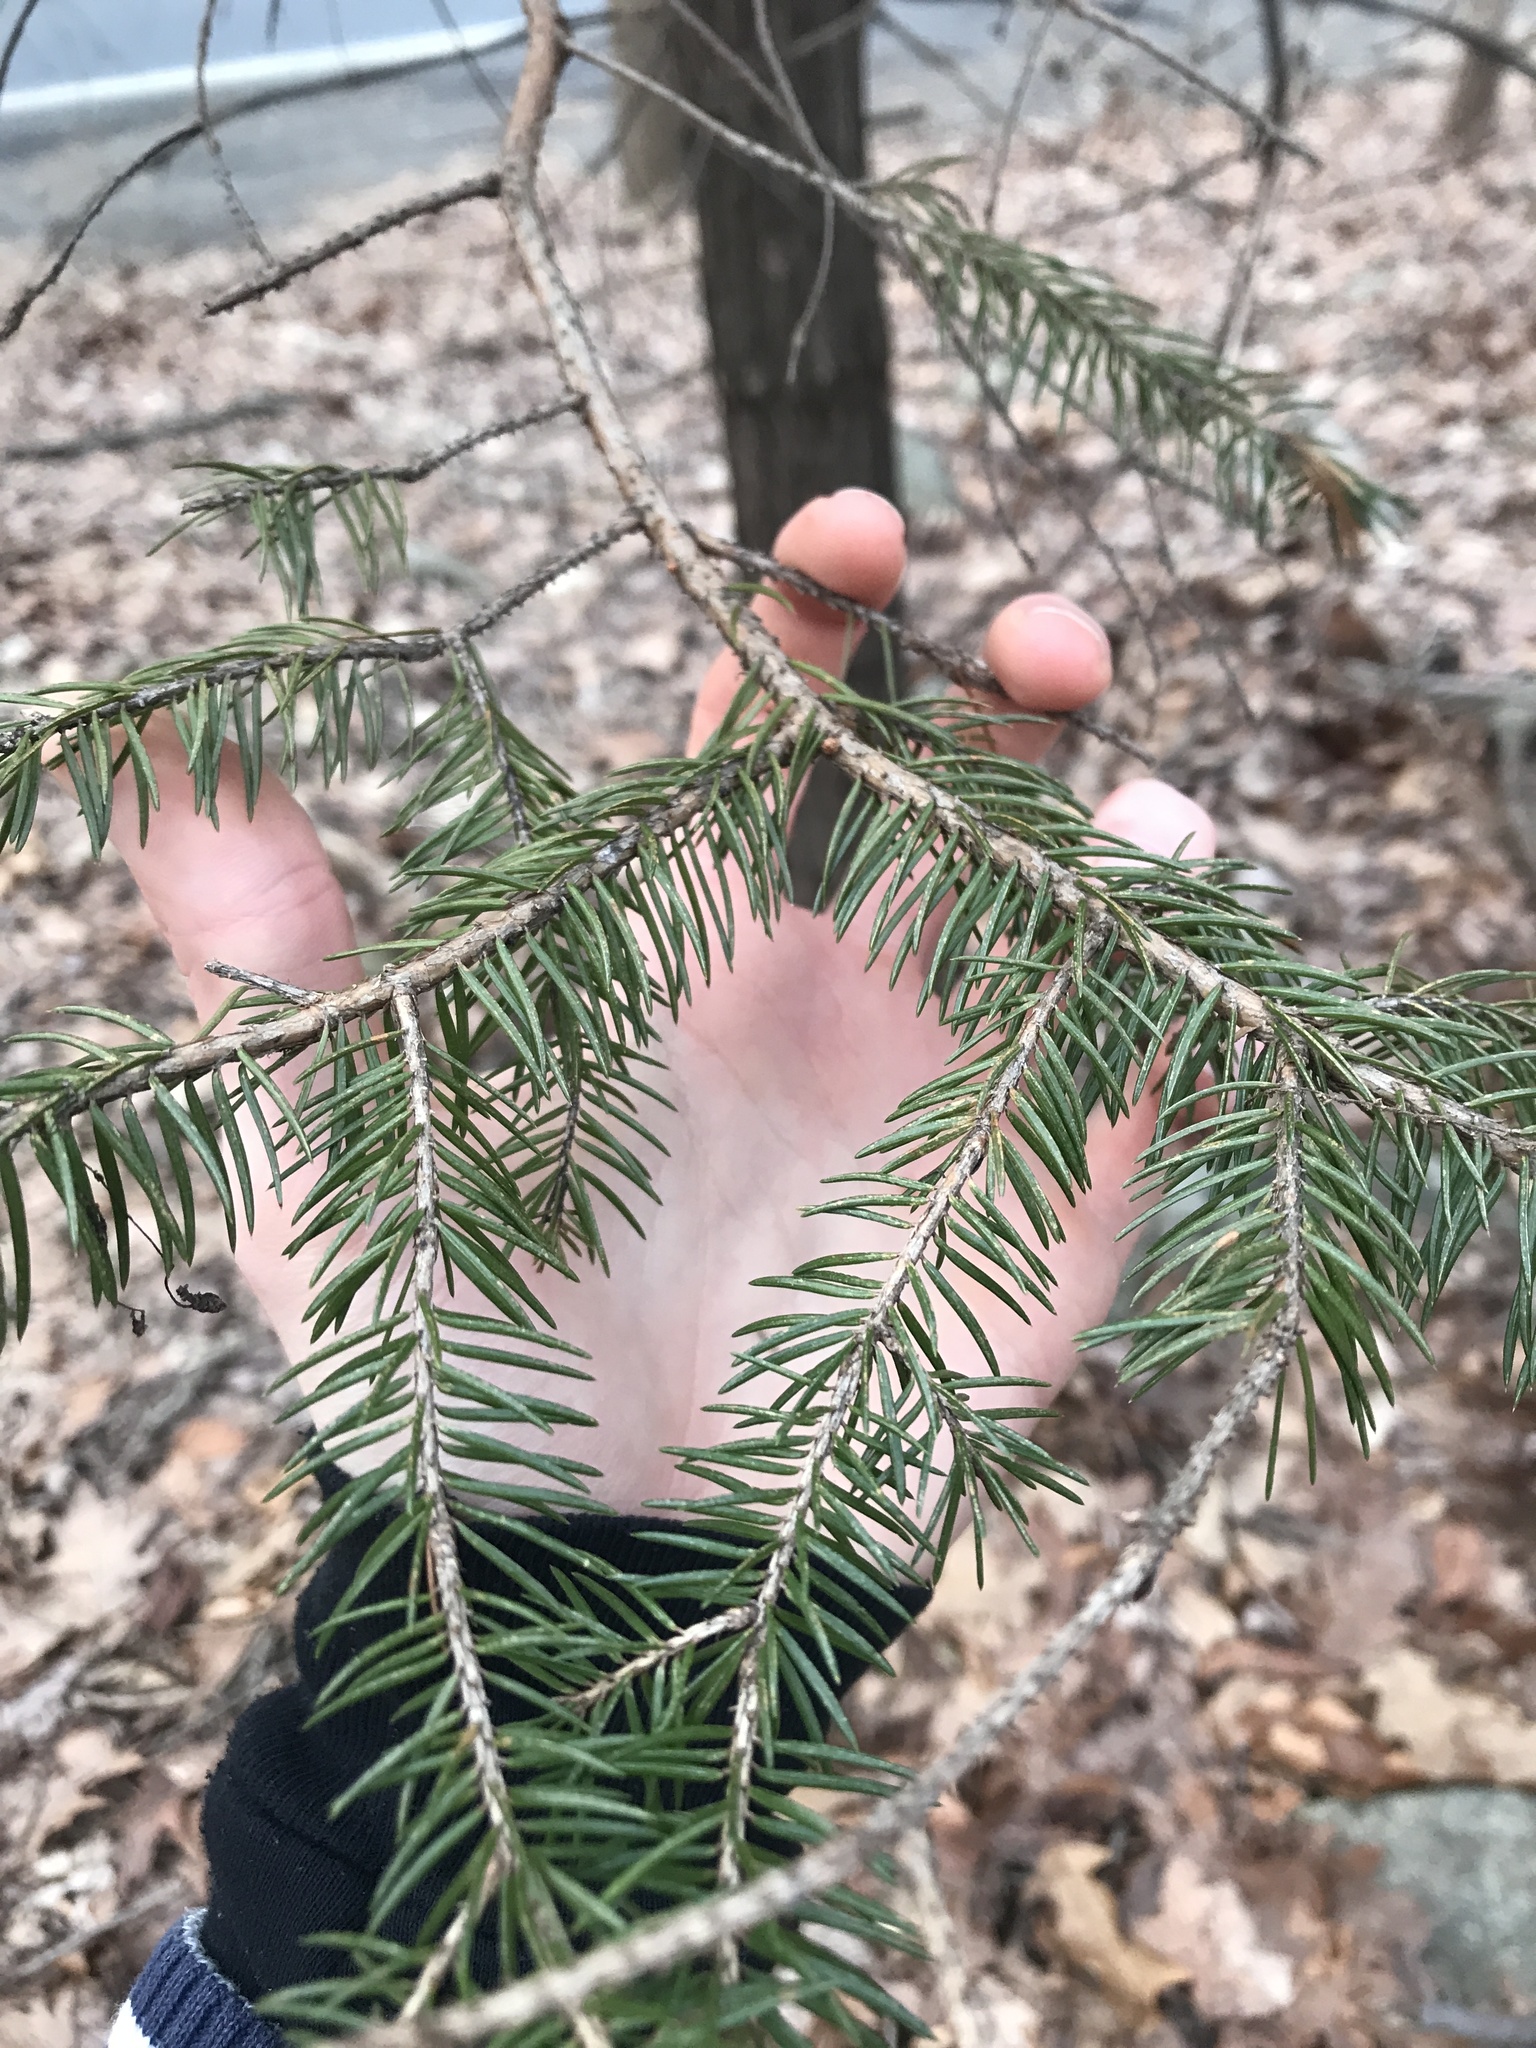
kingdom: Plantae
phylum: Tracheophyta
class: Pinopsida
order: Pinales
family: Pinaceae
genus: Picea
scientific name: Picea abies
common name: Norway spruce
